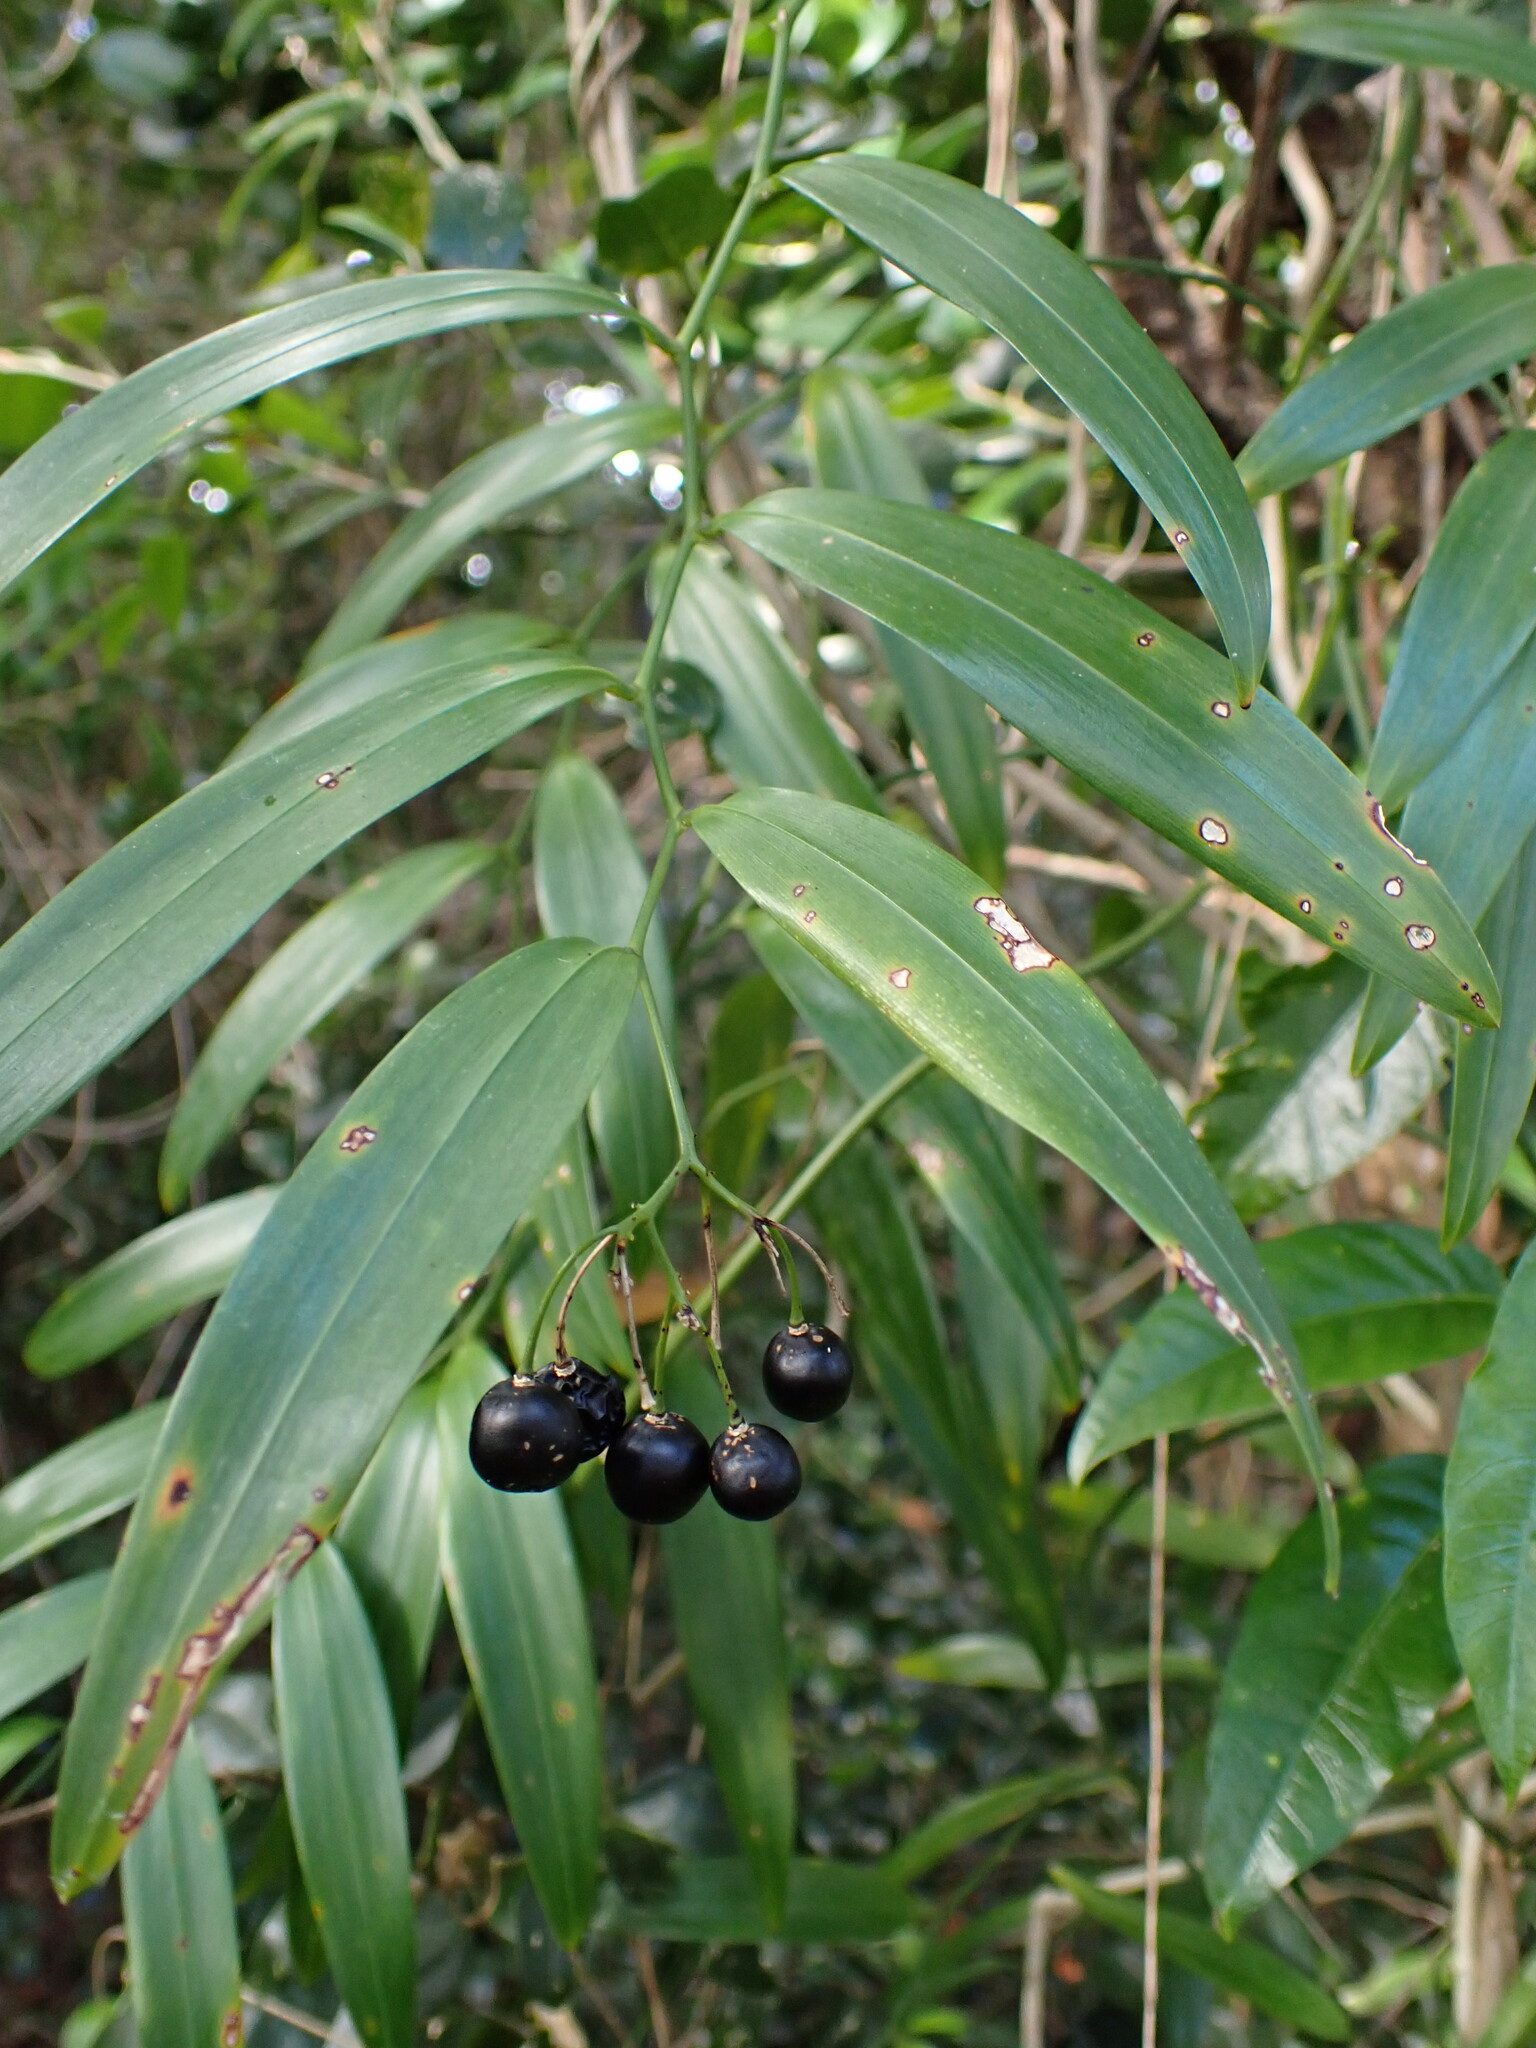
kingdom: Plantae
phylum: Tracheophyta
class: Liliopsida
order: Asparagales
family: Asphodelaceae
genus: Geitonoplesium
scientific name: Geitonoplesium cymosum
